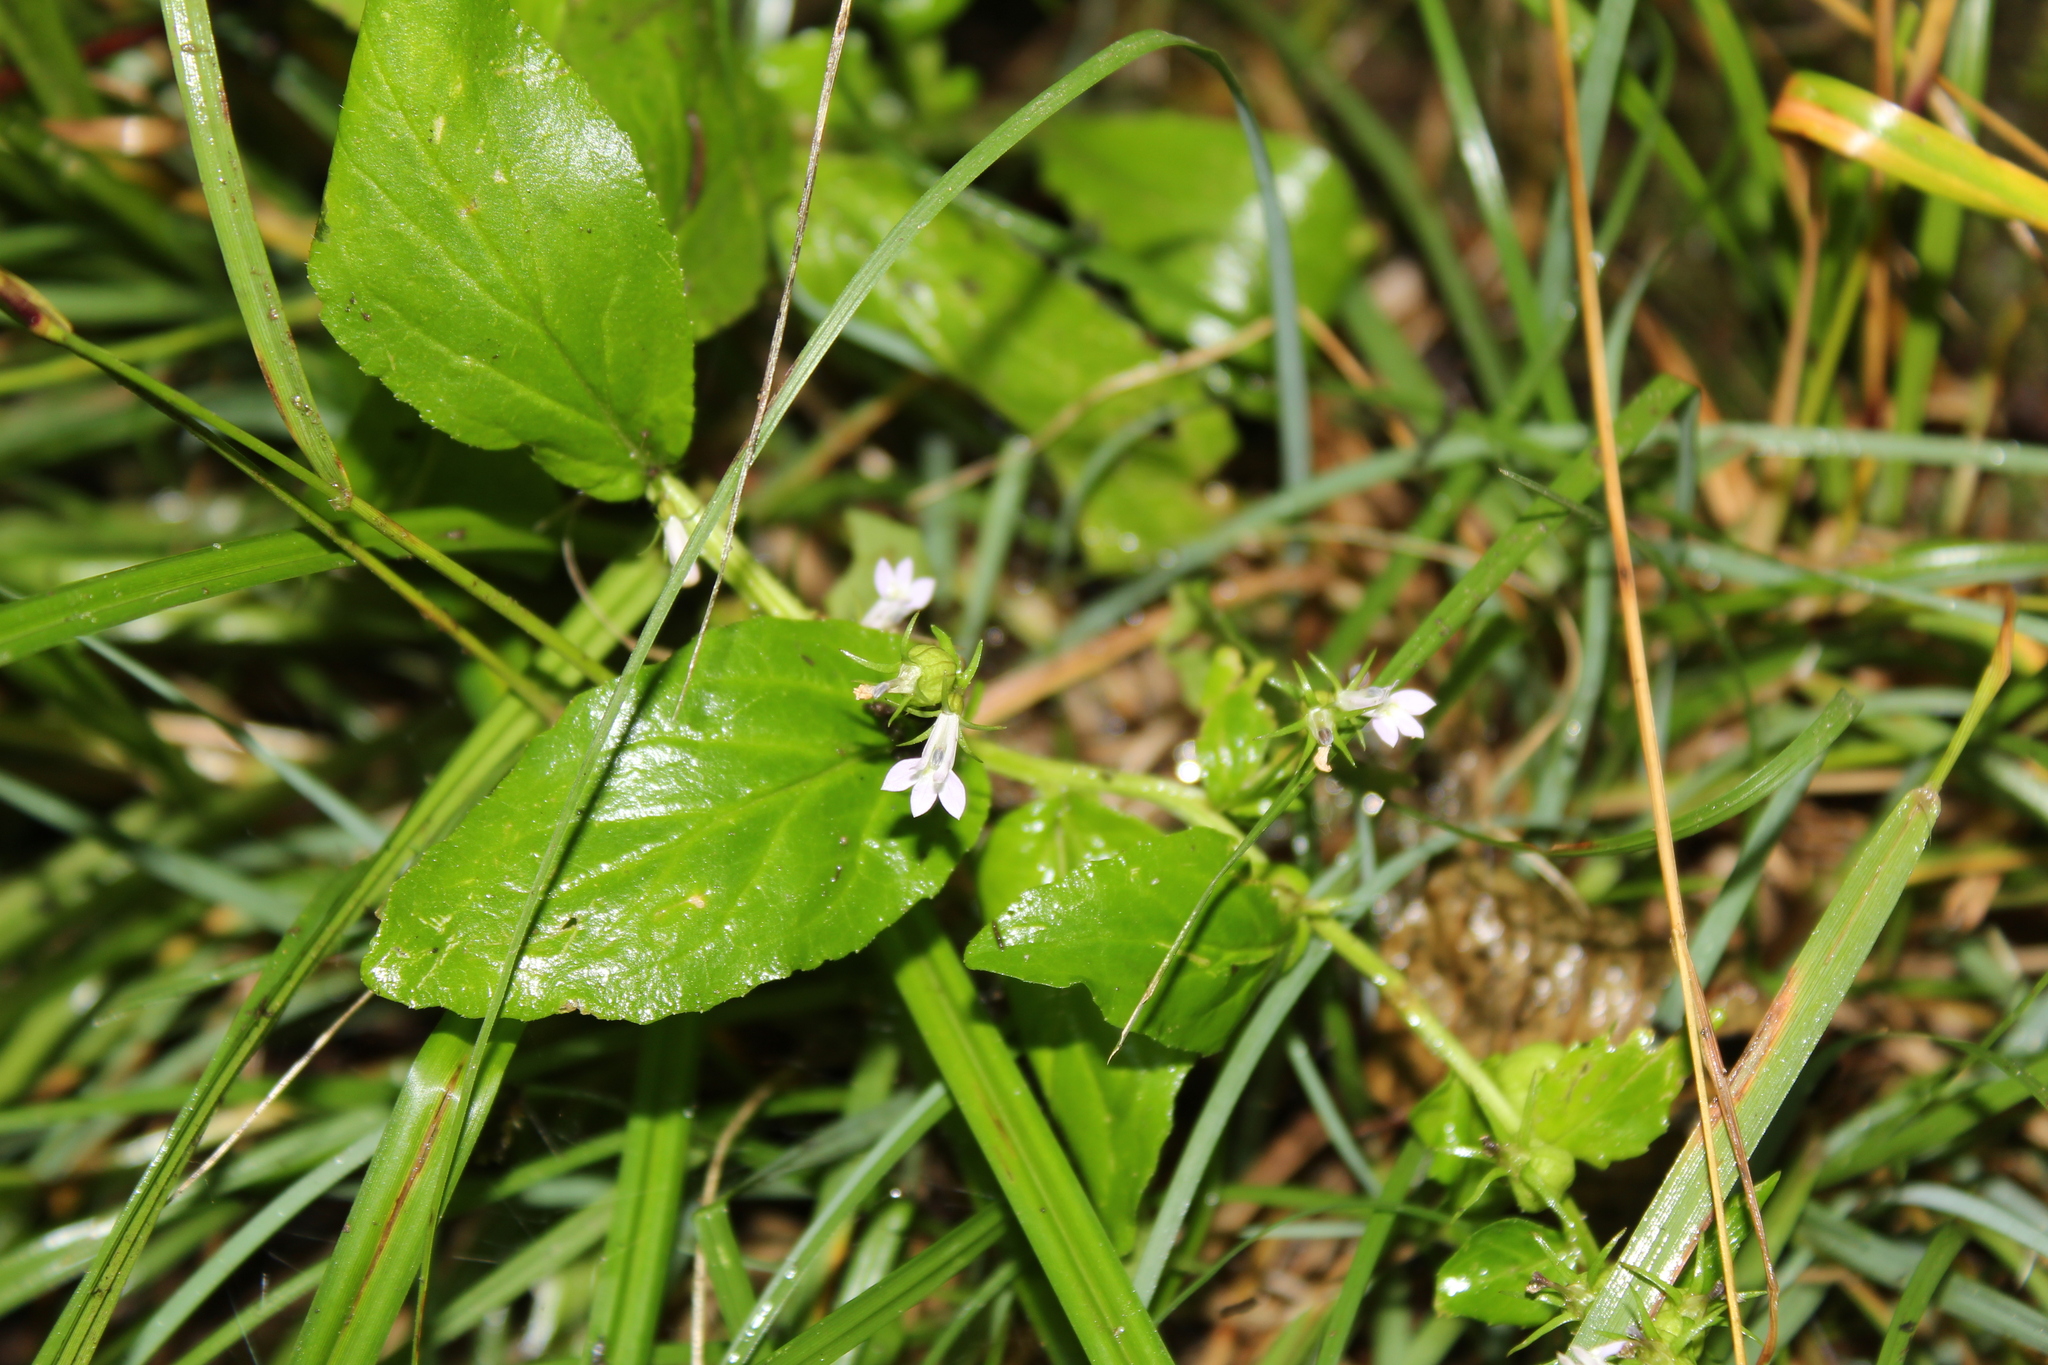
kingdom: Plantae
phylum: Tracheophyta
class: Magnoliopsida
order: Asterales
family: Campanulaceae
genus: Lobelia
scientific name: Lobelia inflata
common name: Indian tobacco
